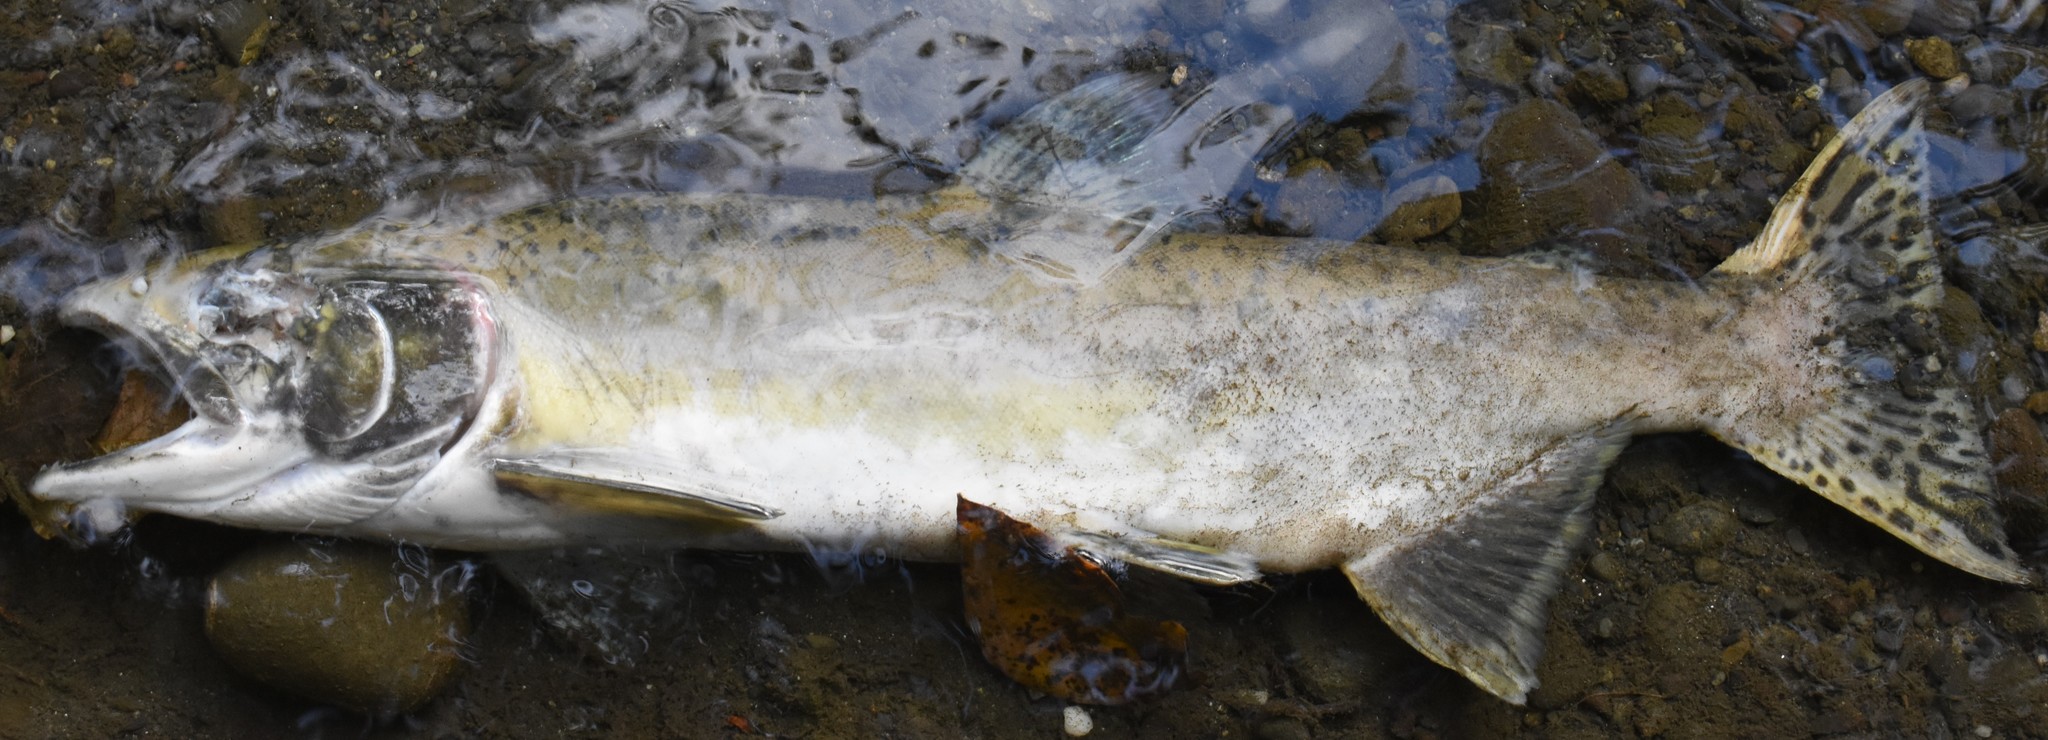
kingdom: Animalia
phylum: Chordata
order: Salmoniformes
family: Salmonidae
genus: Oncorhynchus
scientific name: Oncorhynchus gorbuscha
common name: Humpback salmon
